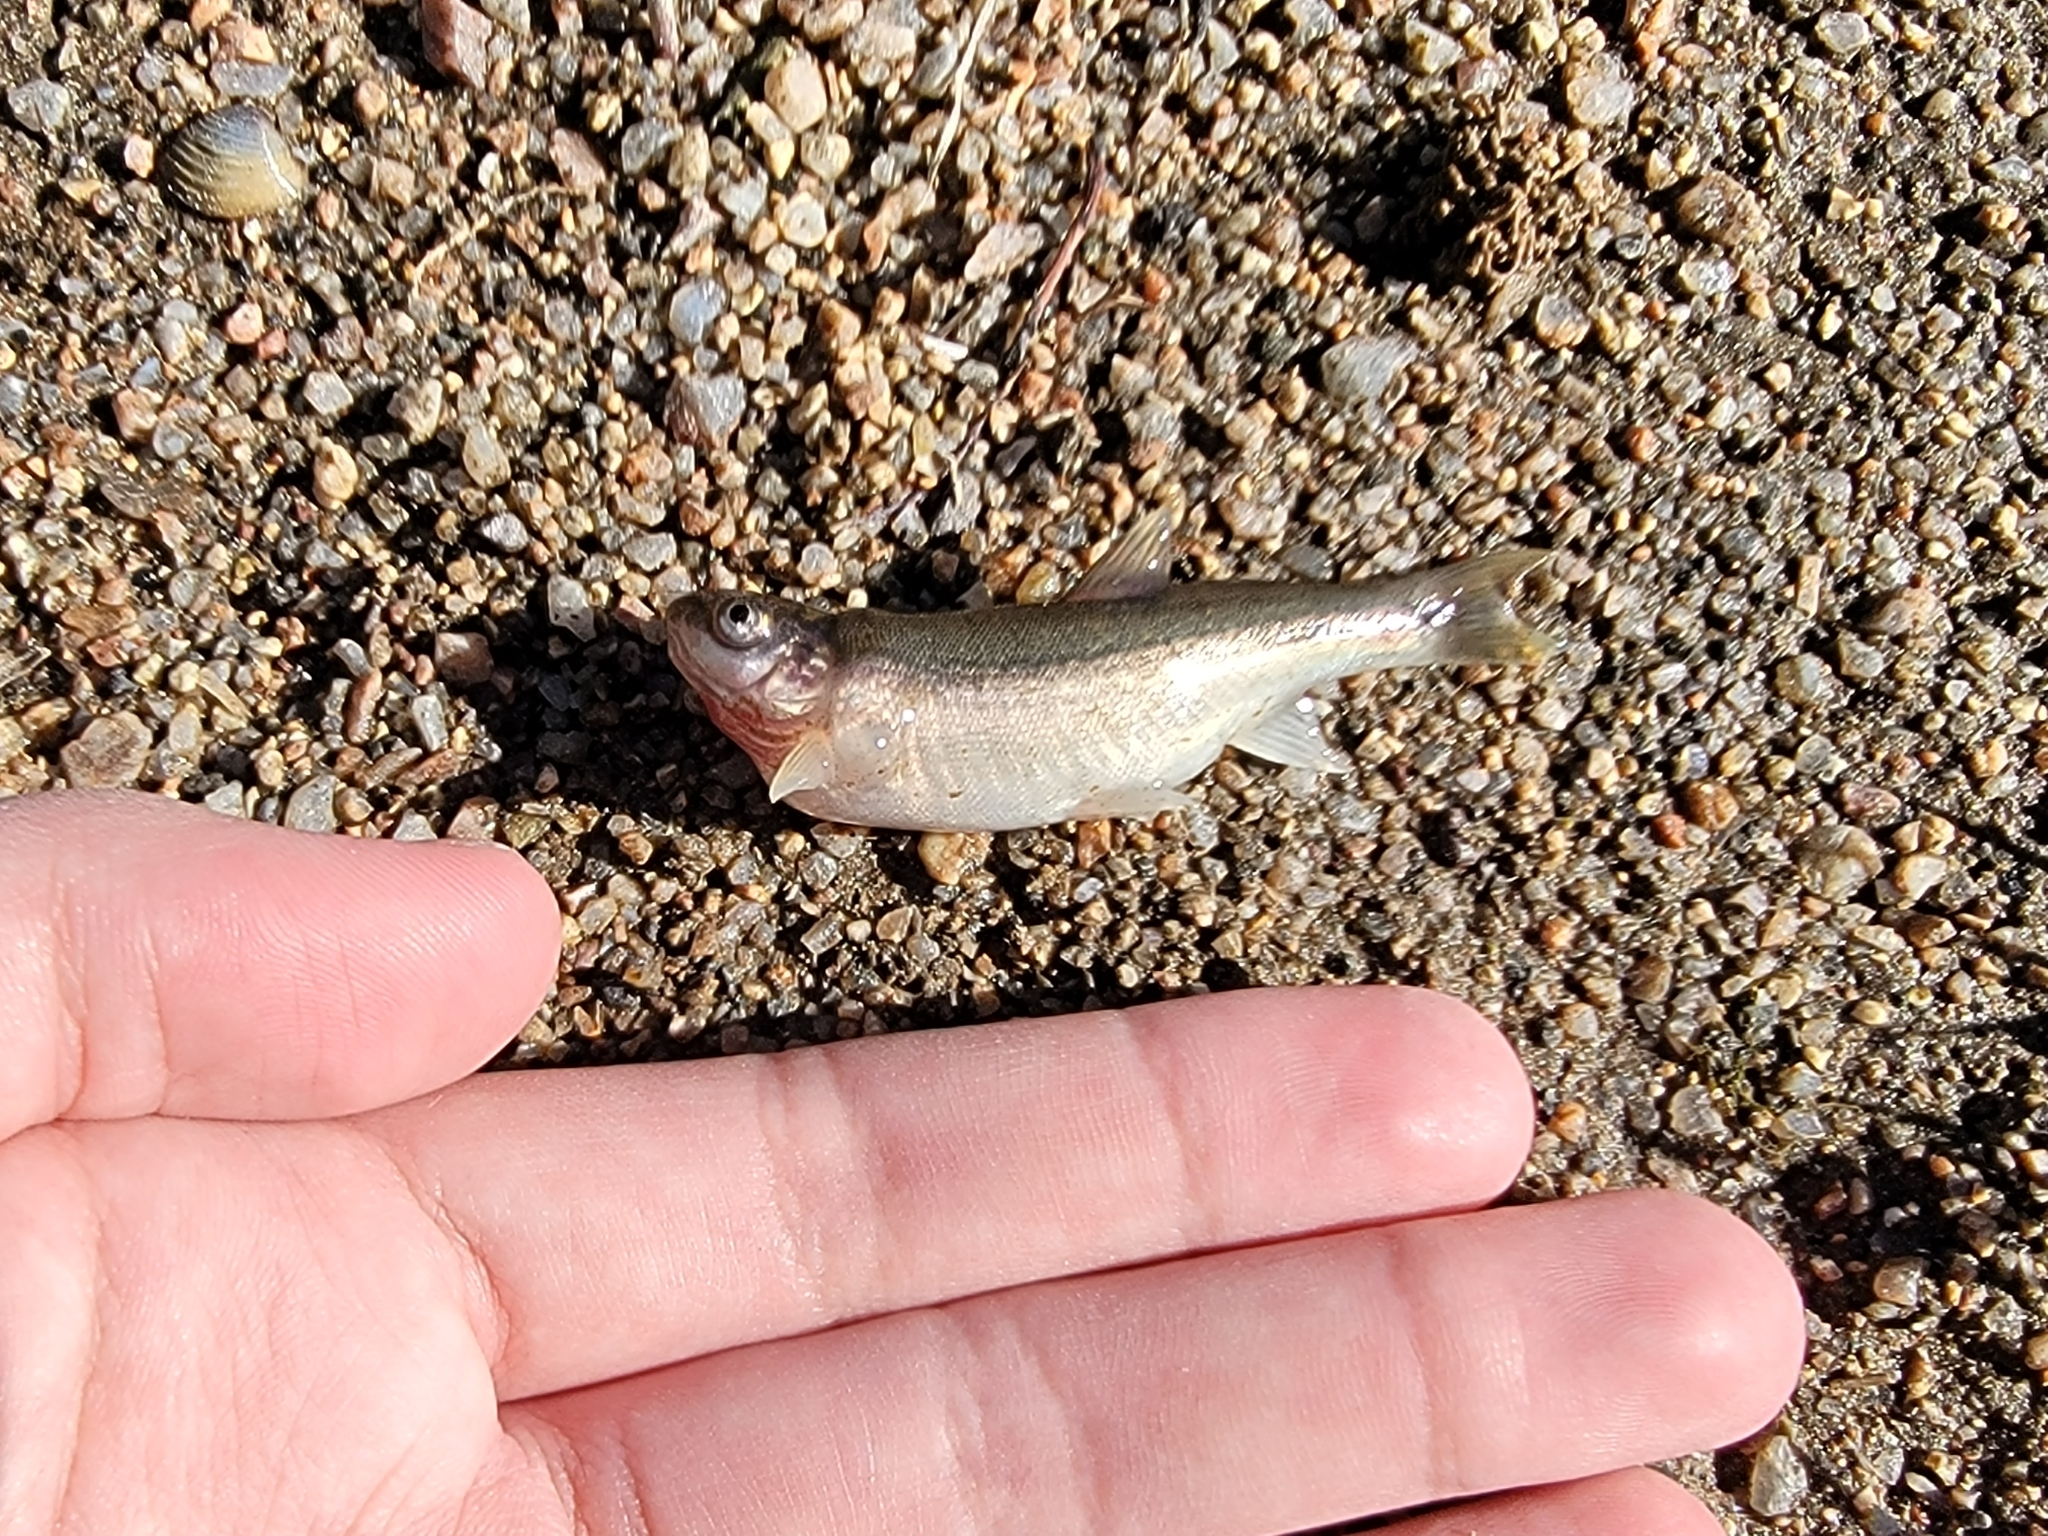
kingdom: Animalia
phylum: Chordata
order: Cypriniformes
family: Cyprinidae
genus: Agosia
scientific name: Agosia chrysogaster
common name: Longfin dace
